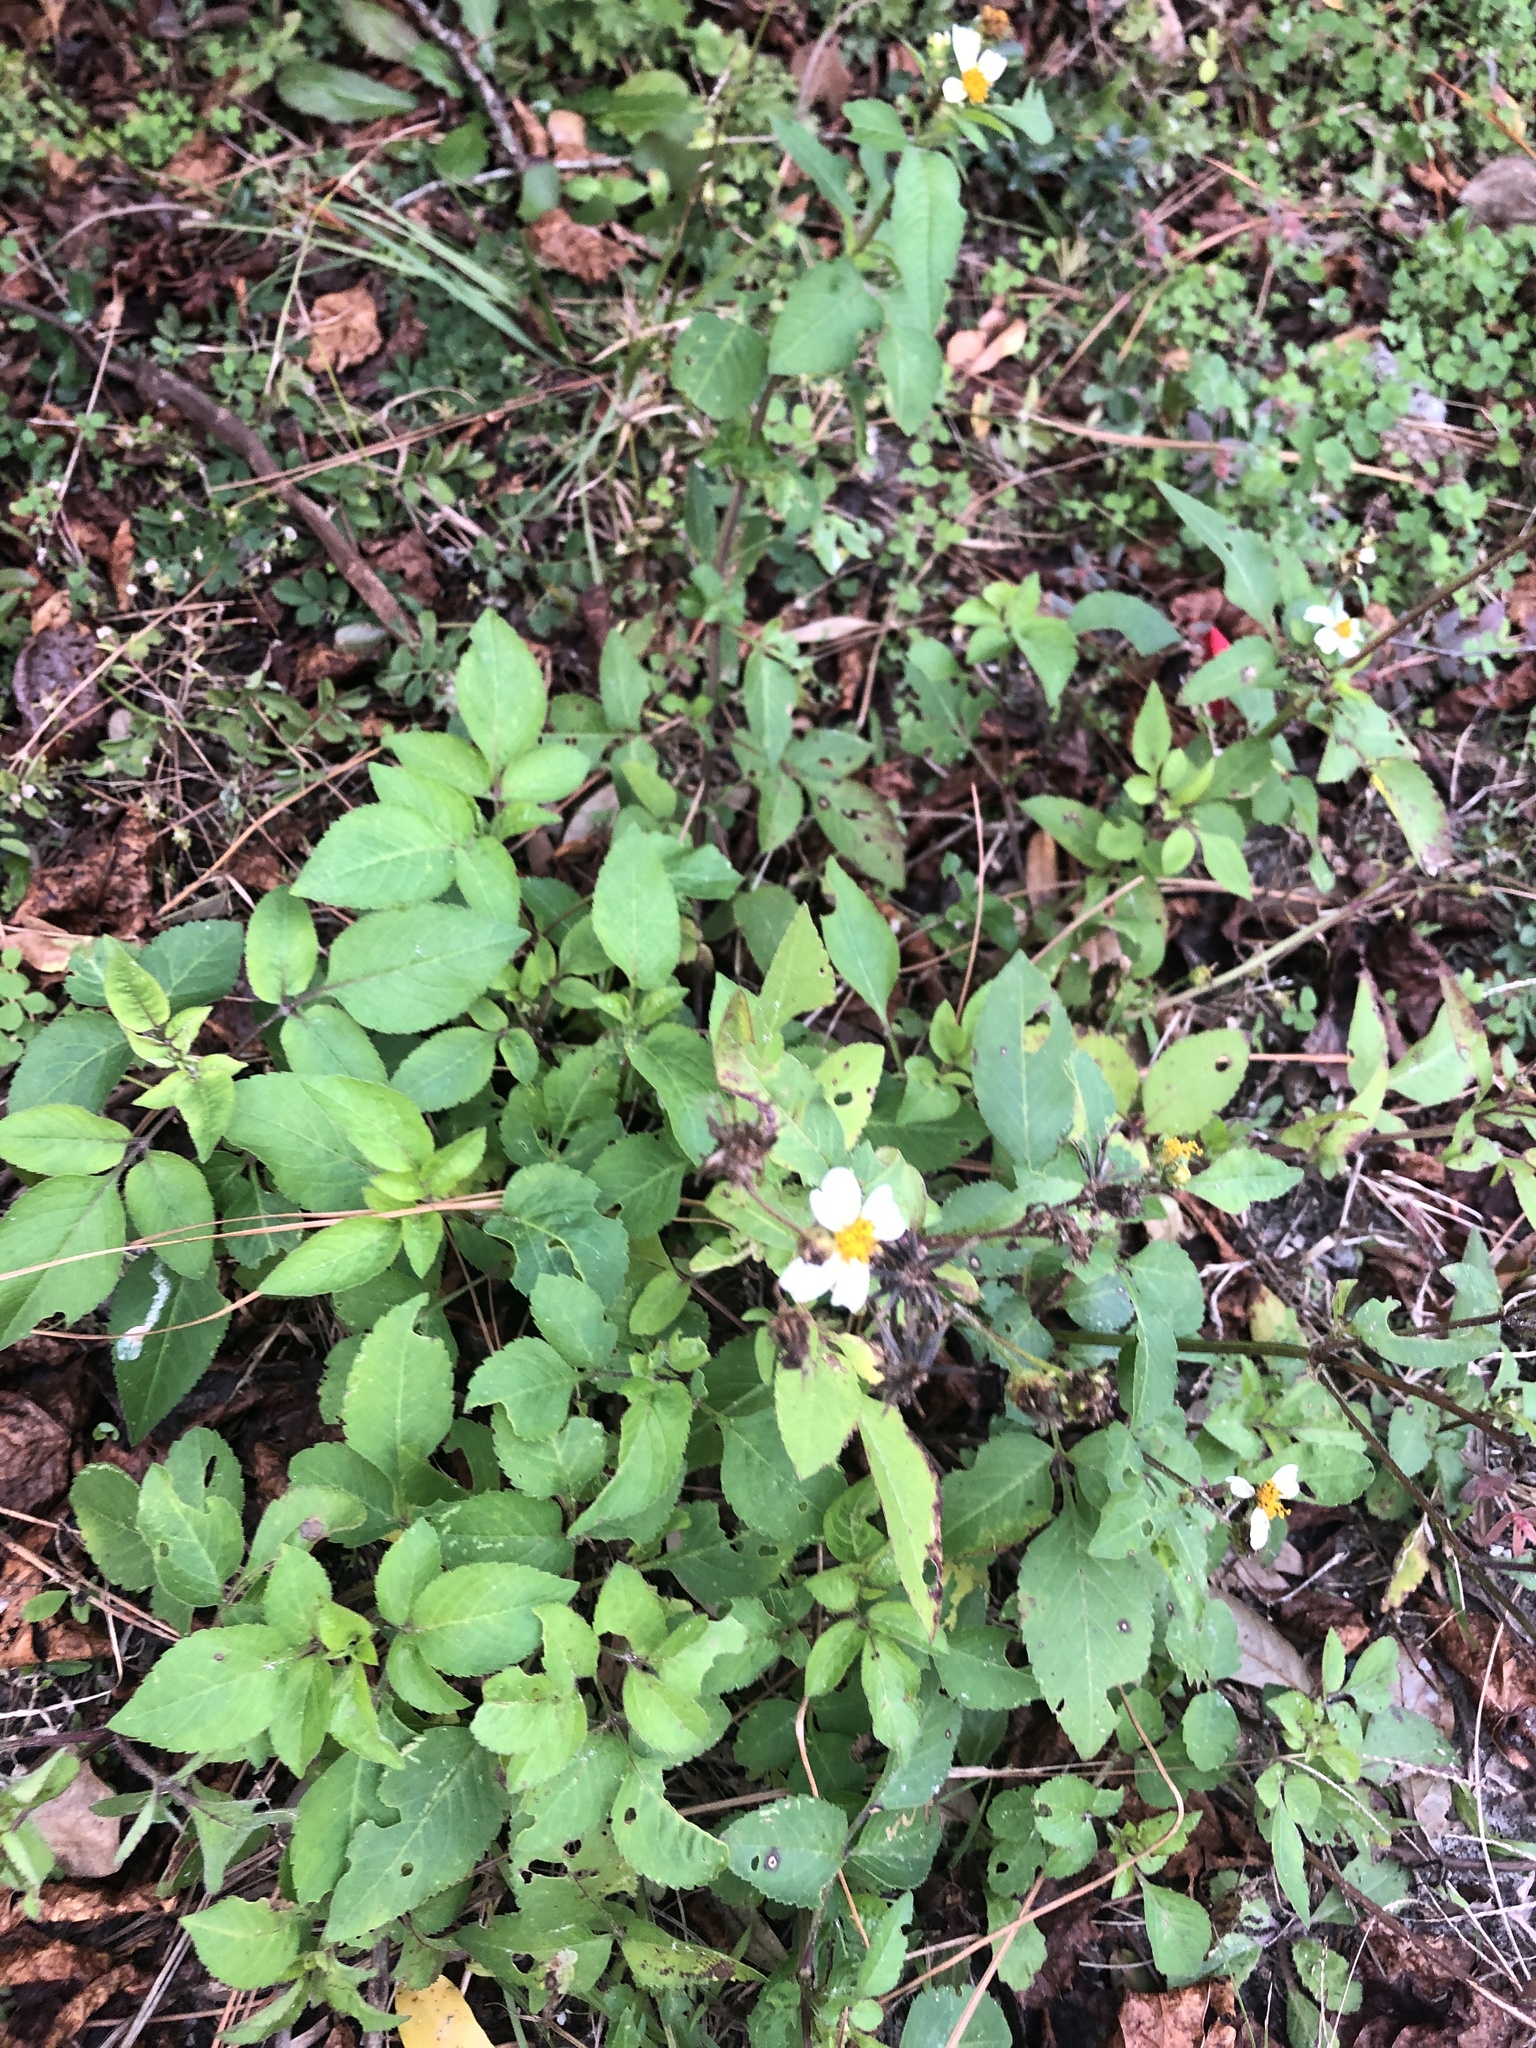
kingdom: Plantae
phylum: Tracheophyta
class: Magnoliopsida
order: Asterales
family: Asteraceae
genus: Bidens
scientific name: Bidens alba
